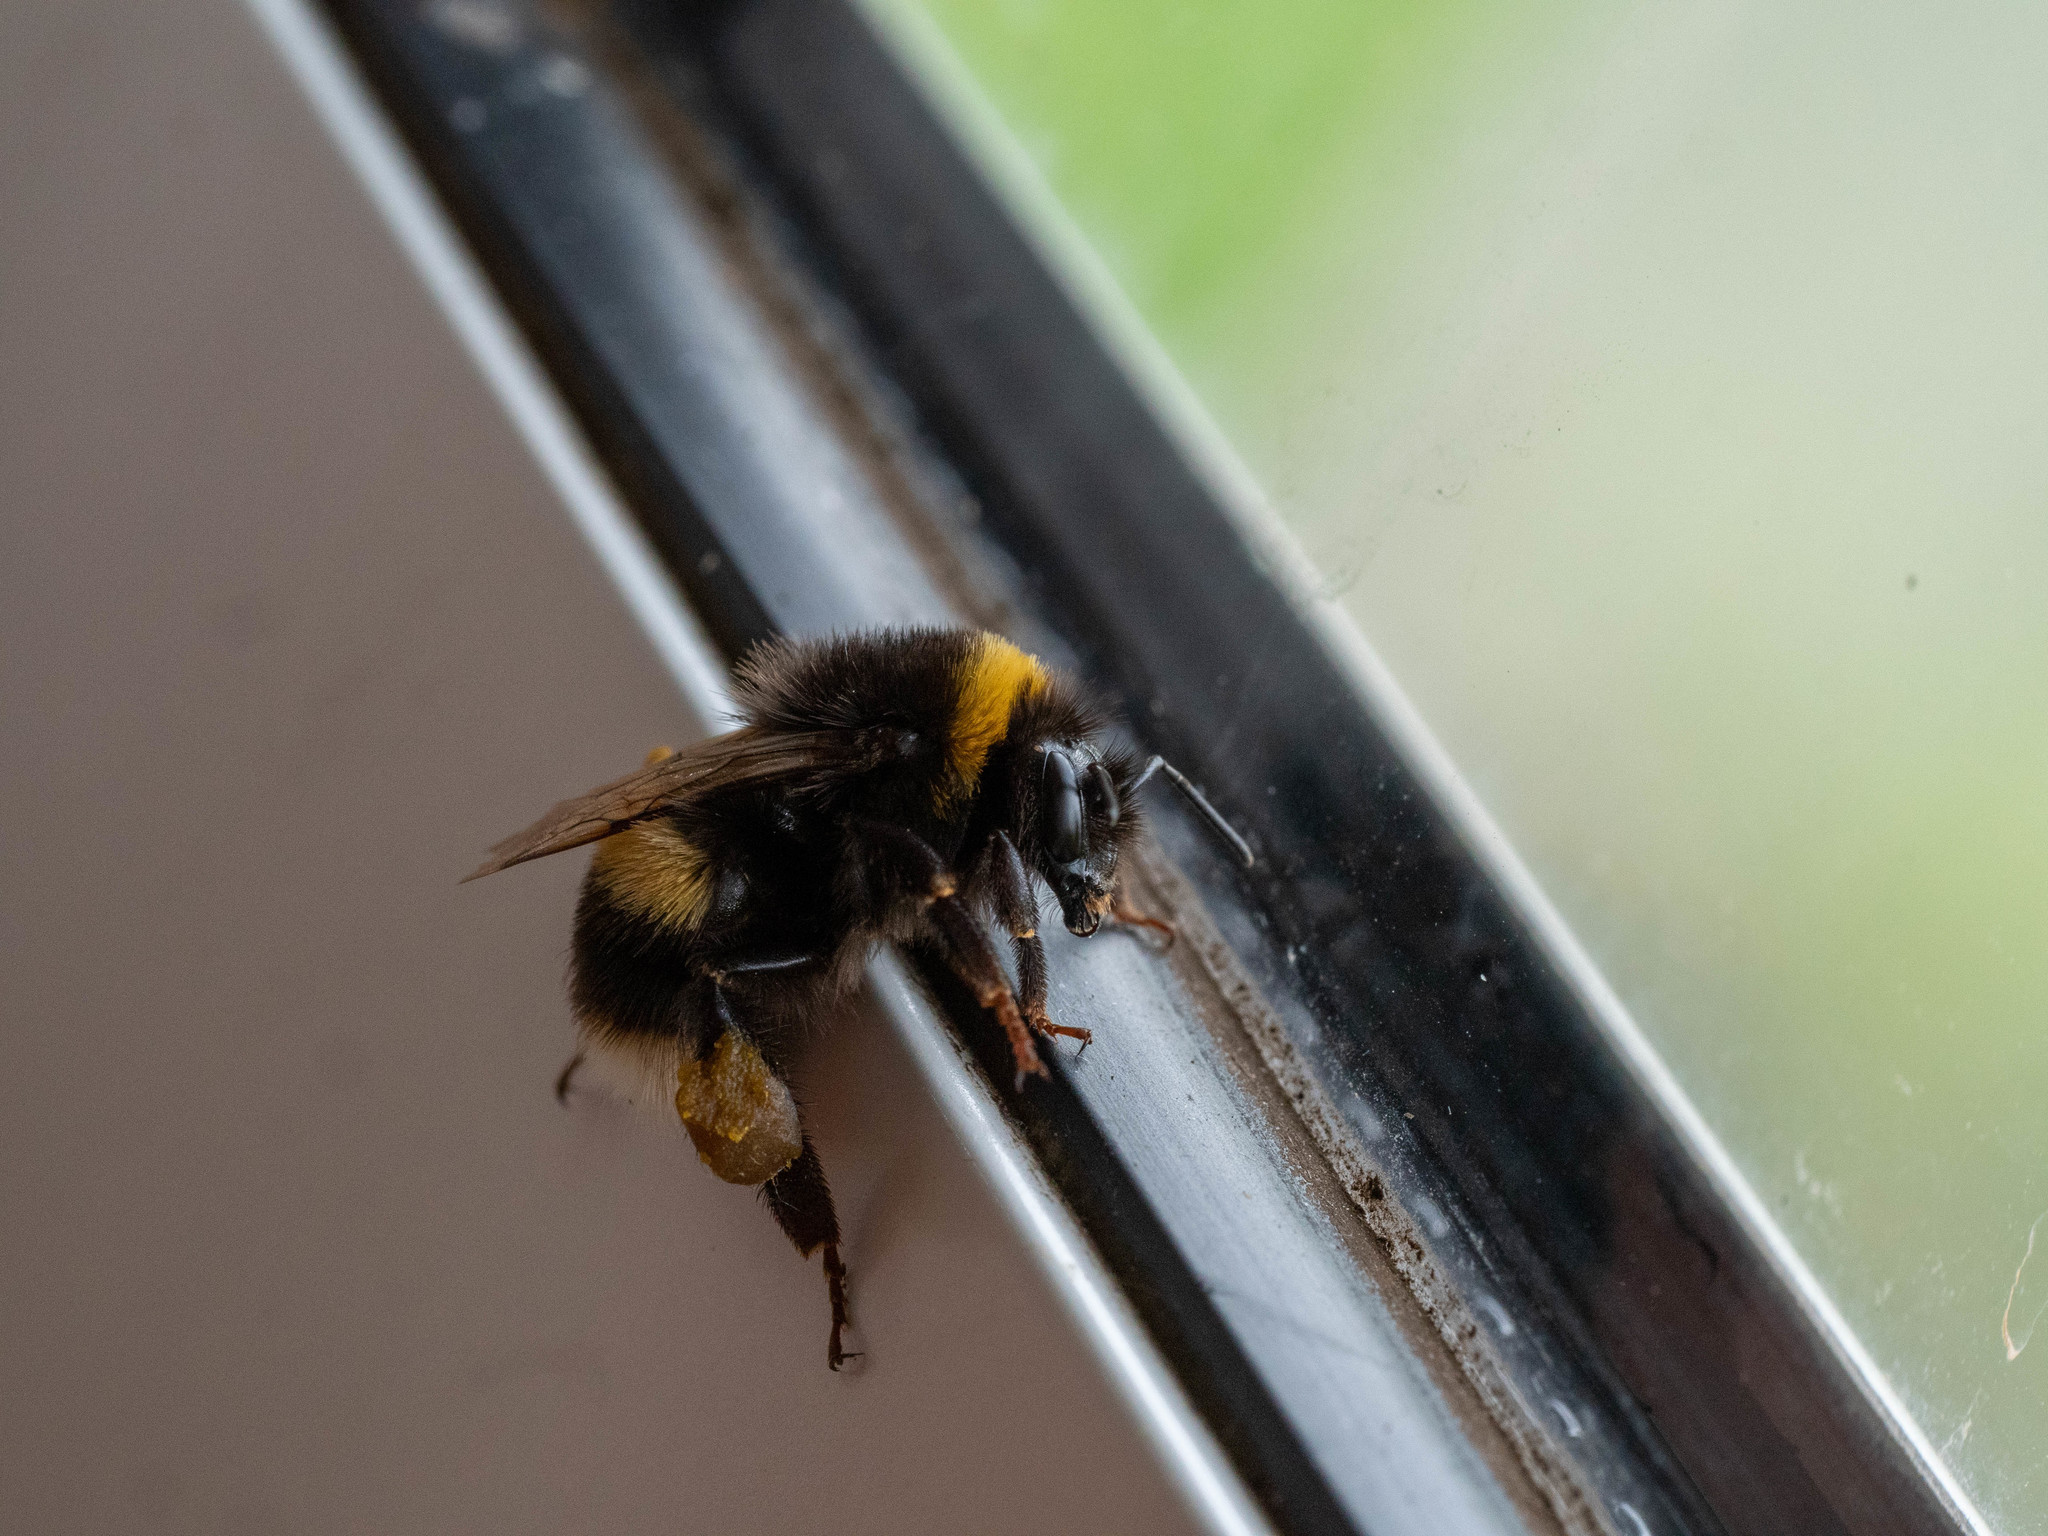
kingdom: Animalia
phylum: Arthropoda
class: Insecta
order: Hymenoptera
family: Apidae
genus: Bombus
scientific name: Bombus terrestris
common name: Buff-tailed bumblebee
